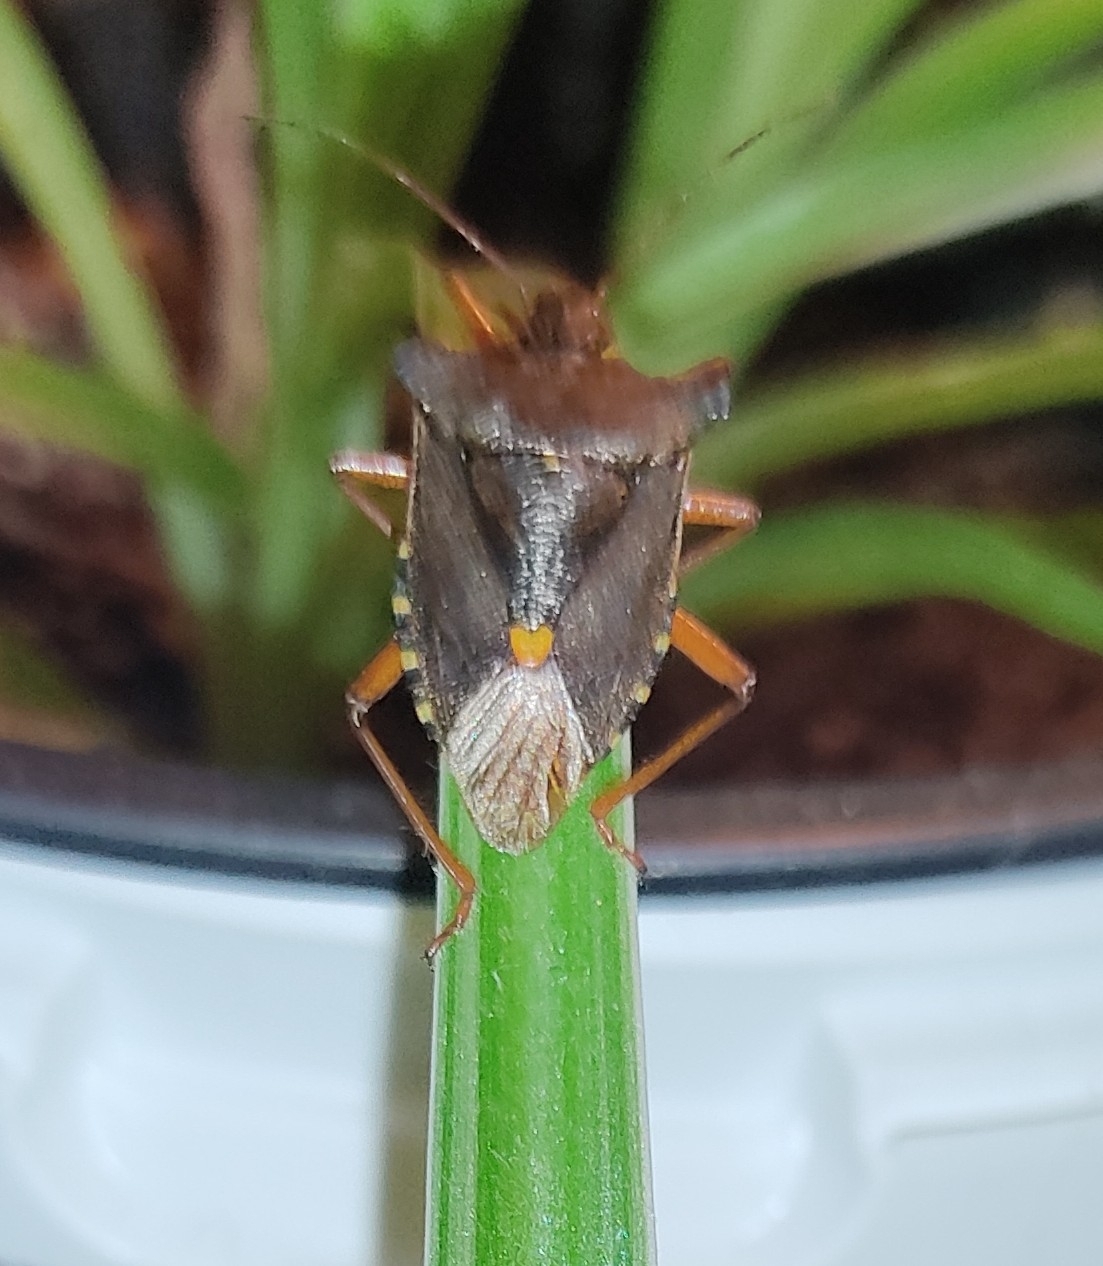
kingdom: Animalia
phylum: Arthropoda
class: Insecta
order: Hemiptera
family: Pentatomidae
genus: Pentatoma
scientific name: Pentatoma rufipes
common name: Forest bug
